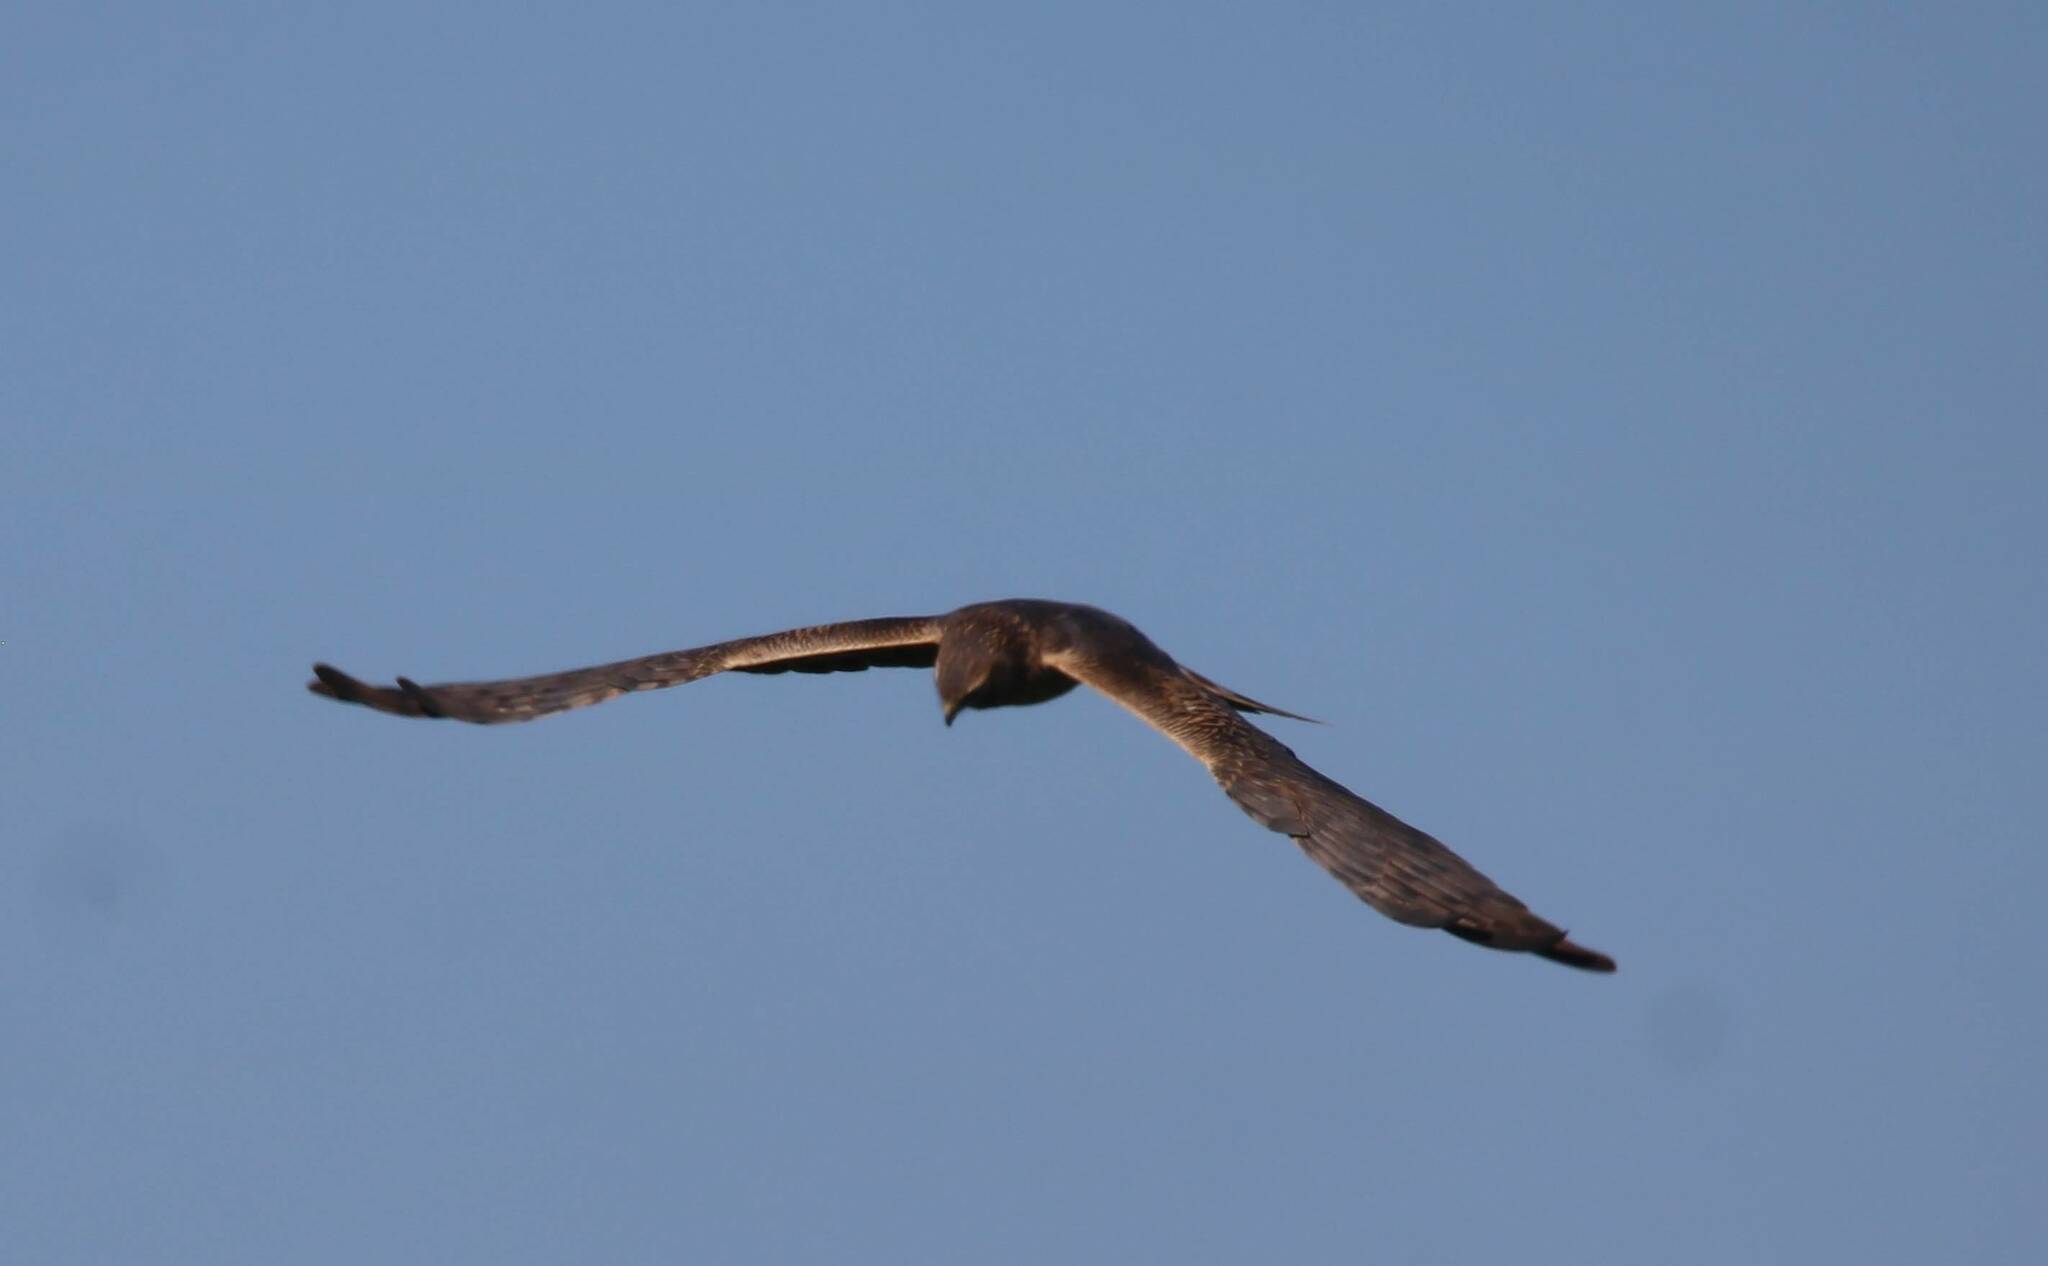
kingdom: Animalia
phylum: Chordata
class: Aves
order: Accipitriformes
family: Accipitridae
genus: Circus
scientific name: Circus aeruginosus
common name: Western marsh harrier
